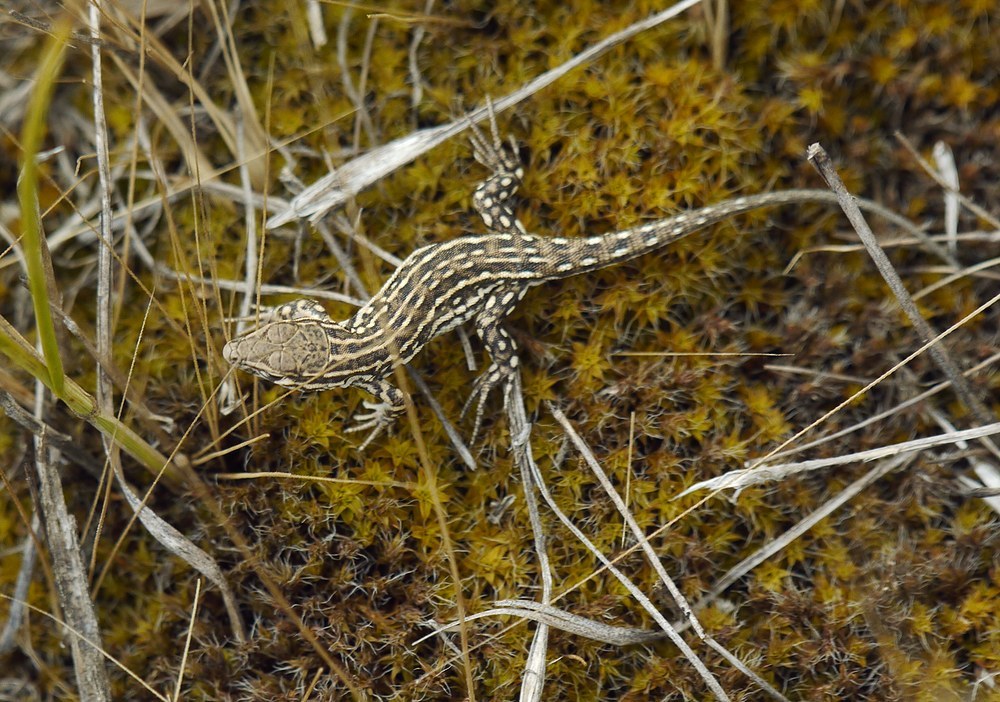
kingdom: Animalia
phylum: Chordata
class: Squamata
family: Lacertidae
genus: Eremias
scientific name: Eremias arguta
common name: Racerunner
